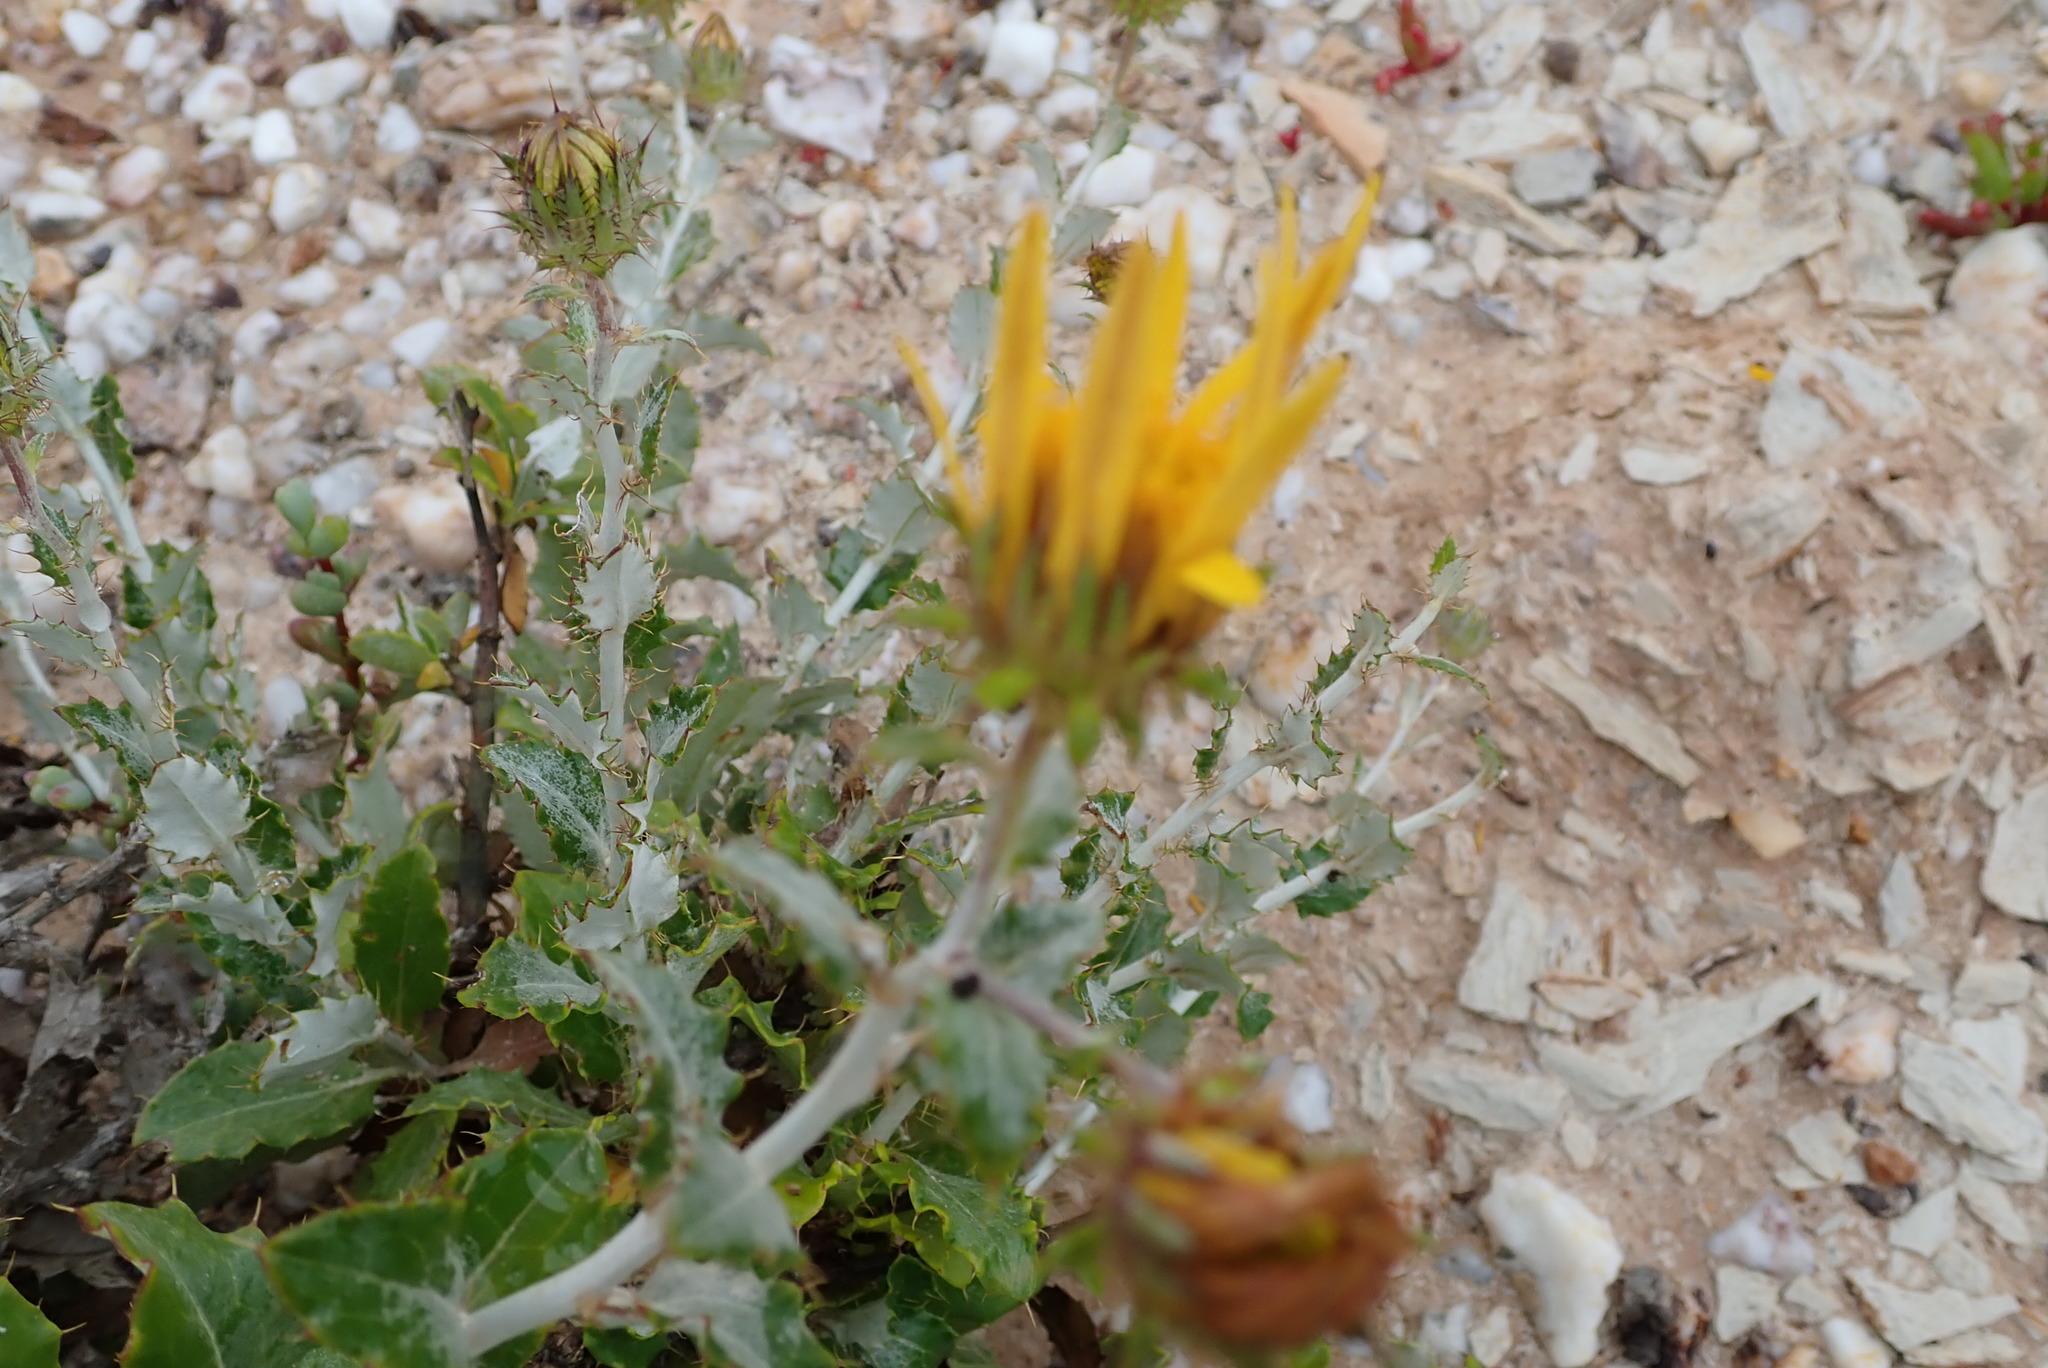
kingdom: Plantae
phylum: Tracheophyta
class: Magnoliopsida
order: Asterales
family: Asteraceae
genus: Berkheya
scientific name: Berkheya fruticosa
